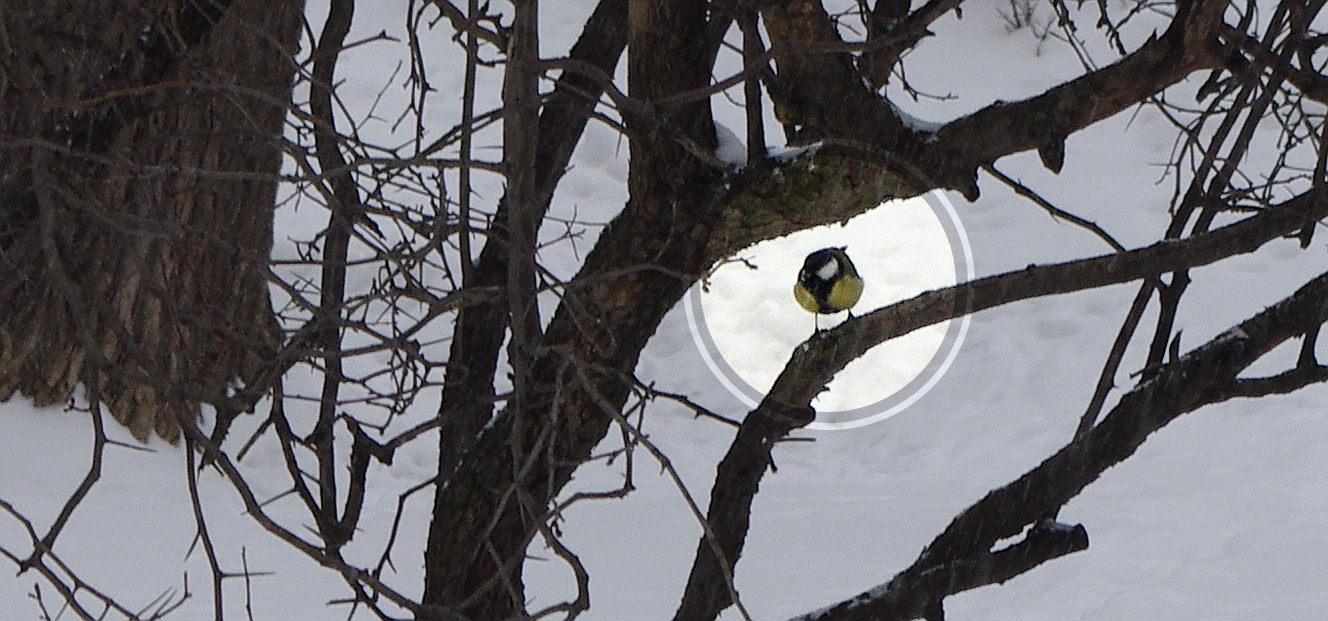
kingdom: Animalia
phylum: Chordata
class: Aves
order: Passeriformes
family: Paridae
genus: Parus
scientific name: Parus major
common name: Great tit
